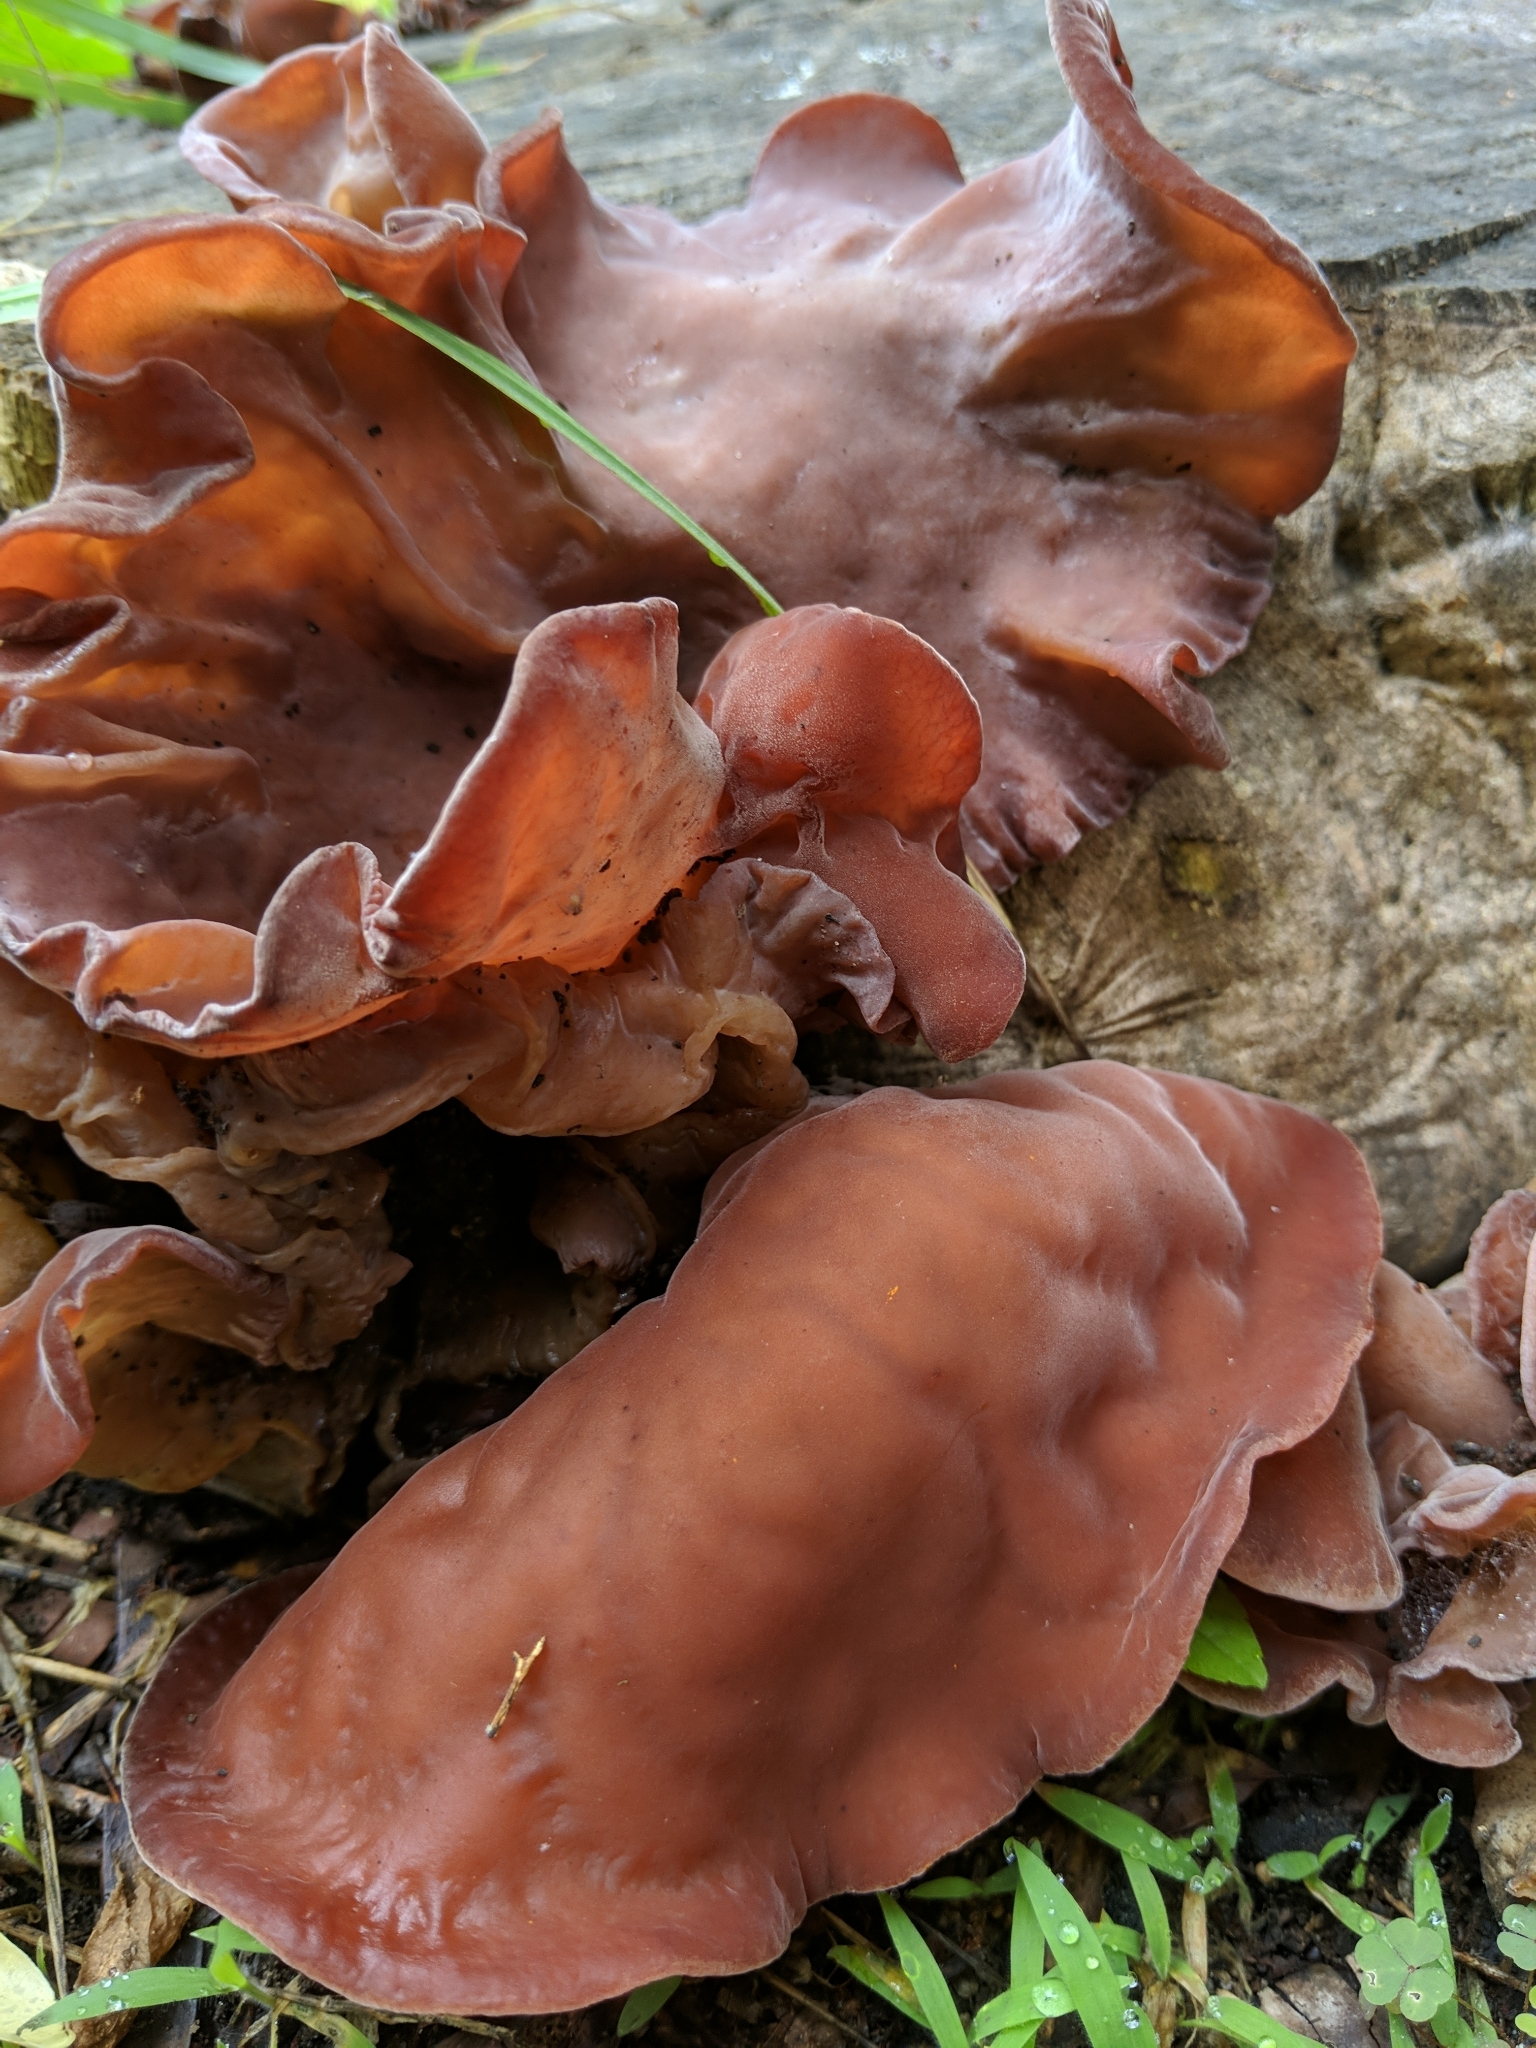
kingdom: Fungi
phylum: Basidiomycota
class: Agaricomycetes
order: Auriculariales
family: Auriculariaceae
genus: Auricularia
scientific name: Auricularia americana
